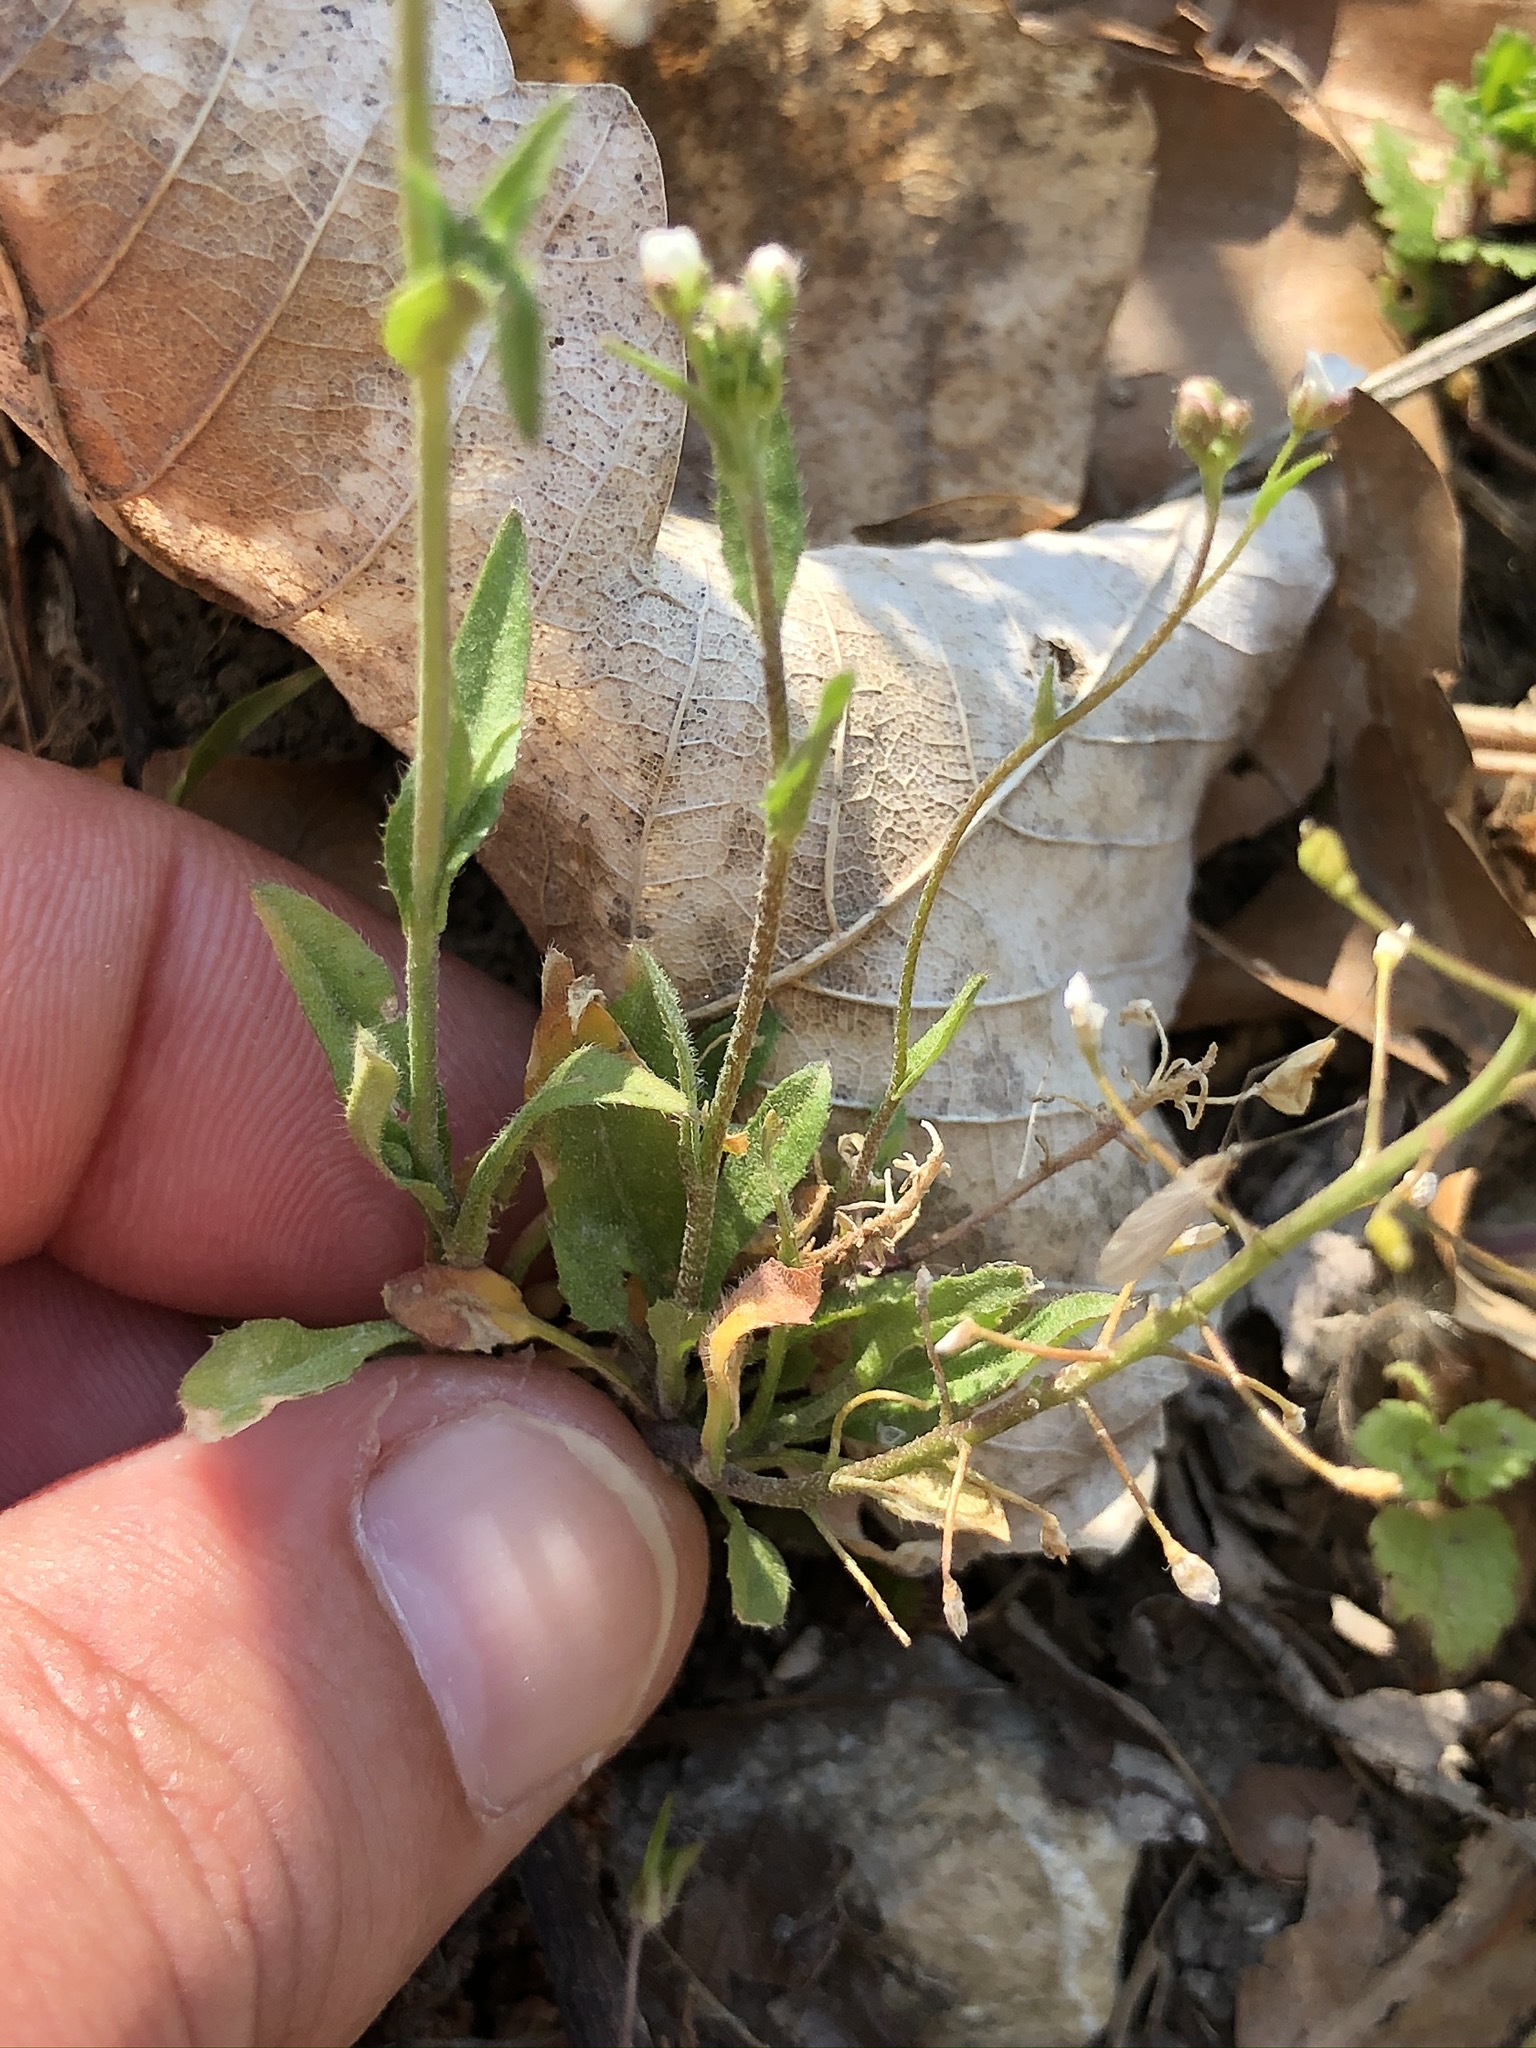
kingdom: Plantae
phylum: Tracheophyta
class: Magnoliopsida
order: Brassicales
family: Brassicaceae
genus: Capsella
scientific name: Capsella bursa-pastoris
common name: Shepherd's purse
